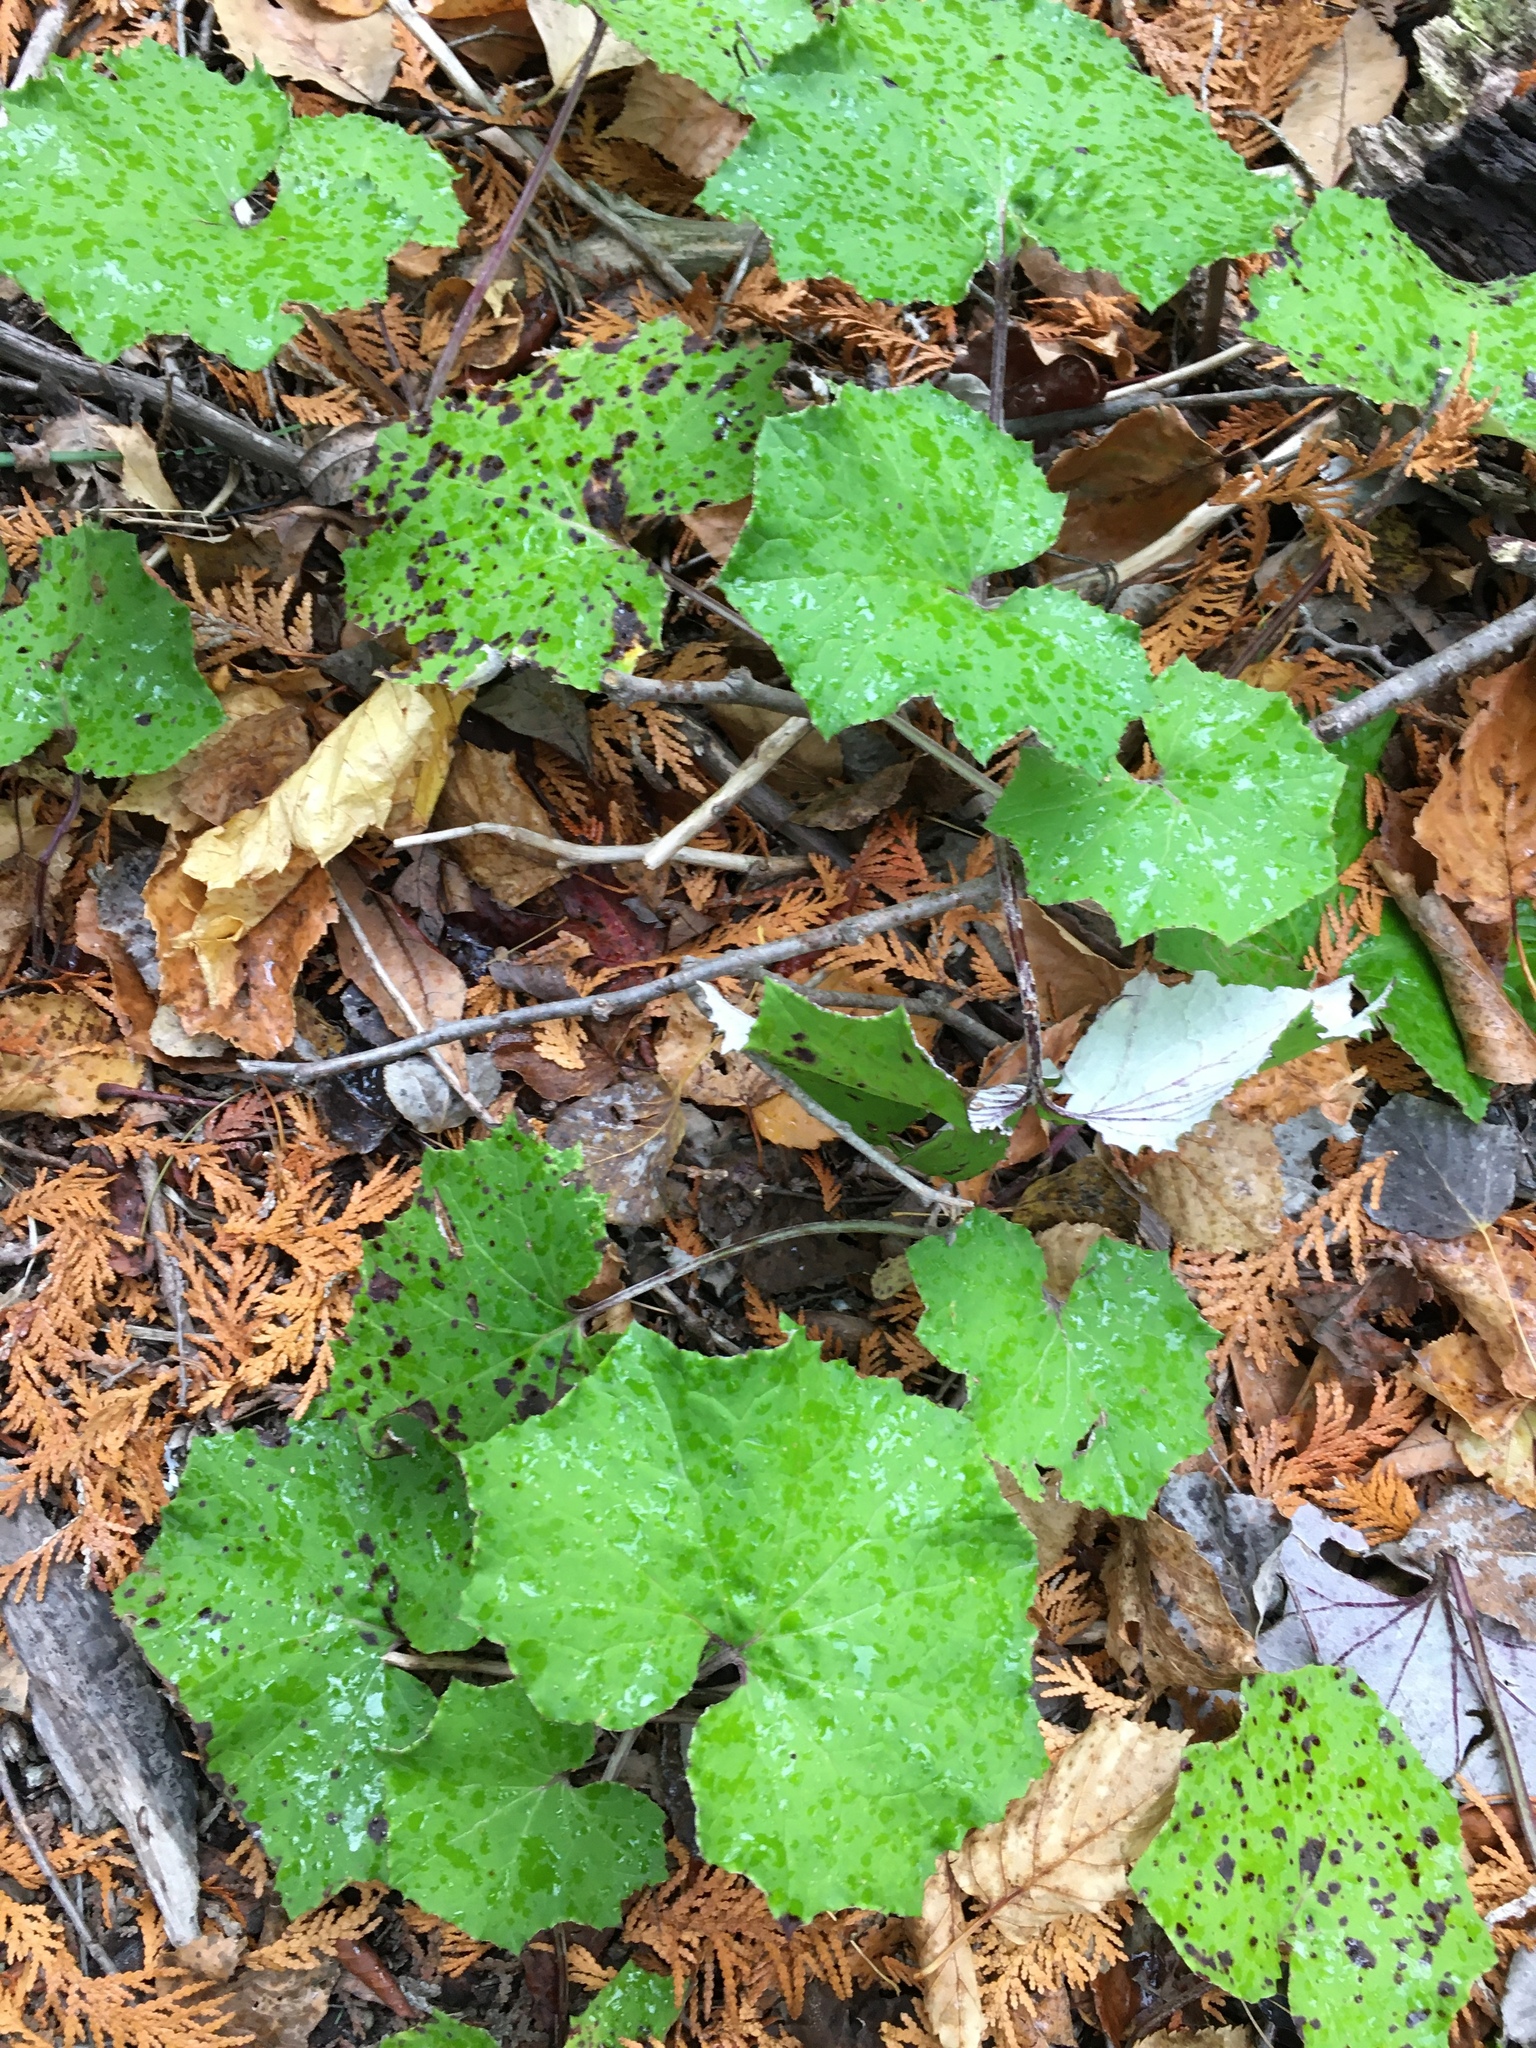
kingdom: Plantae
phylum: Tracheophyta
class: Magnoliopsida
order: Asterales
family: Asteraceae
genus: Tussilago
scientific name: Tussilago farfara
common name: Coltsfoot
